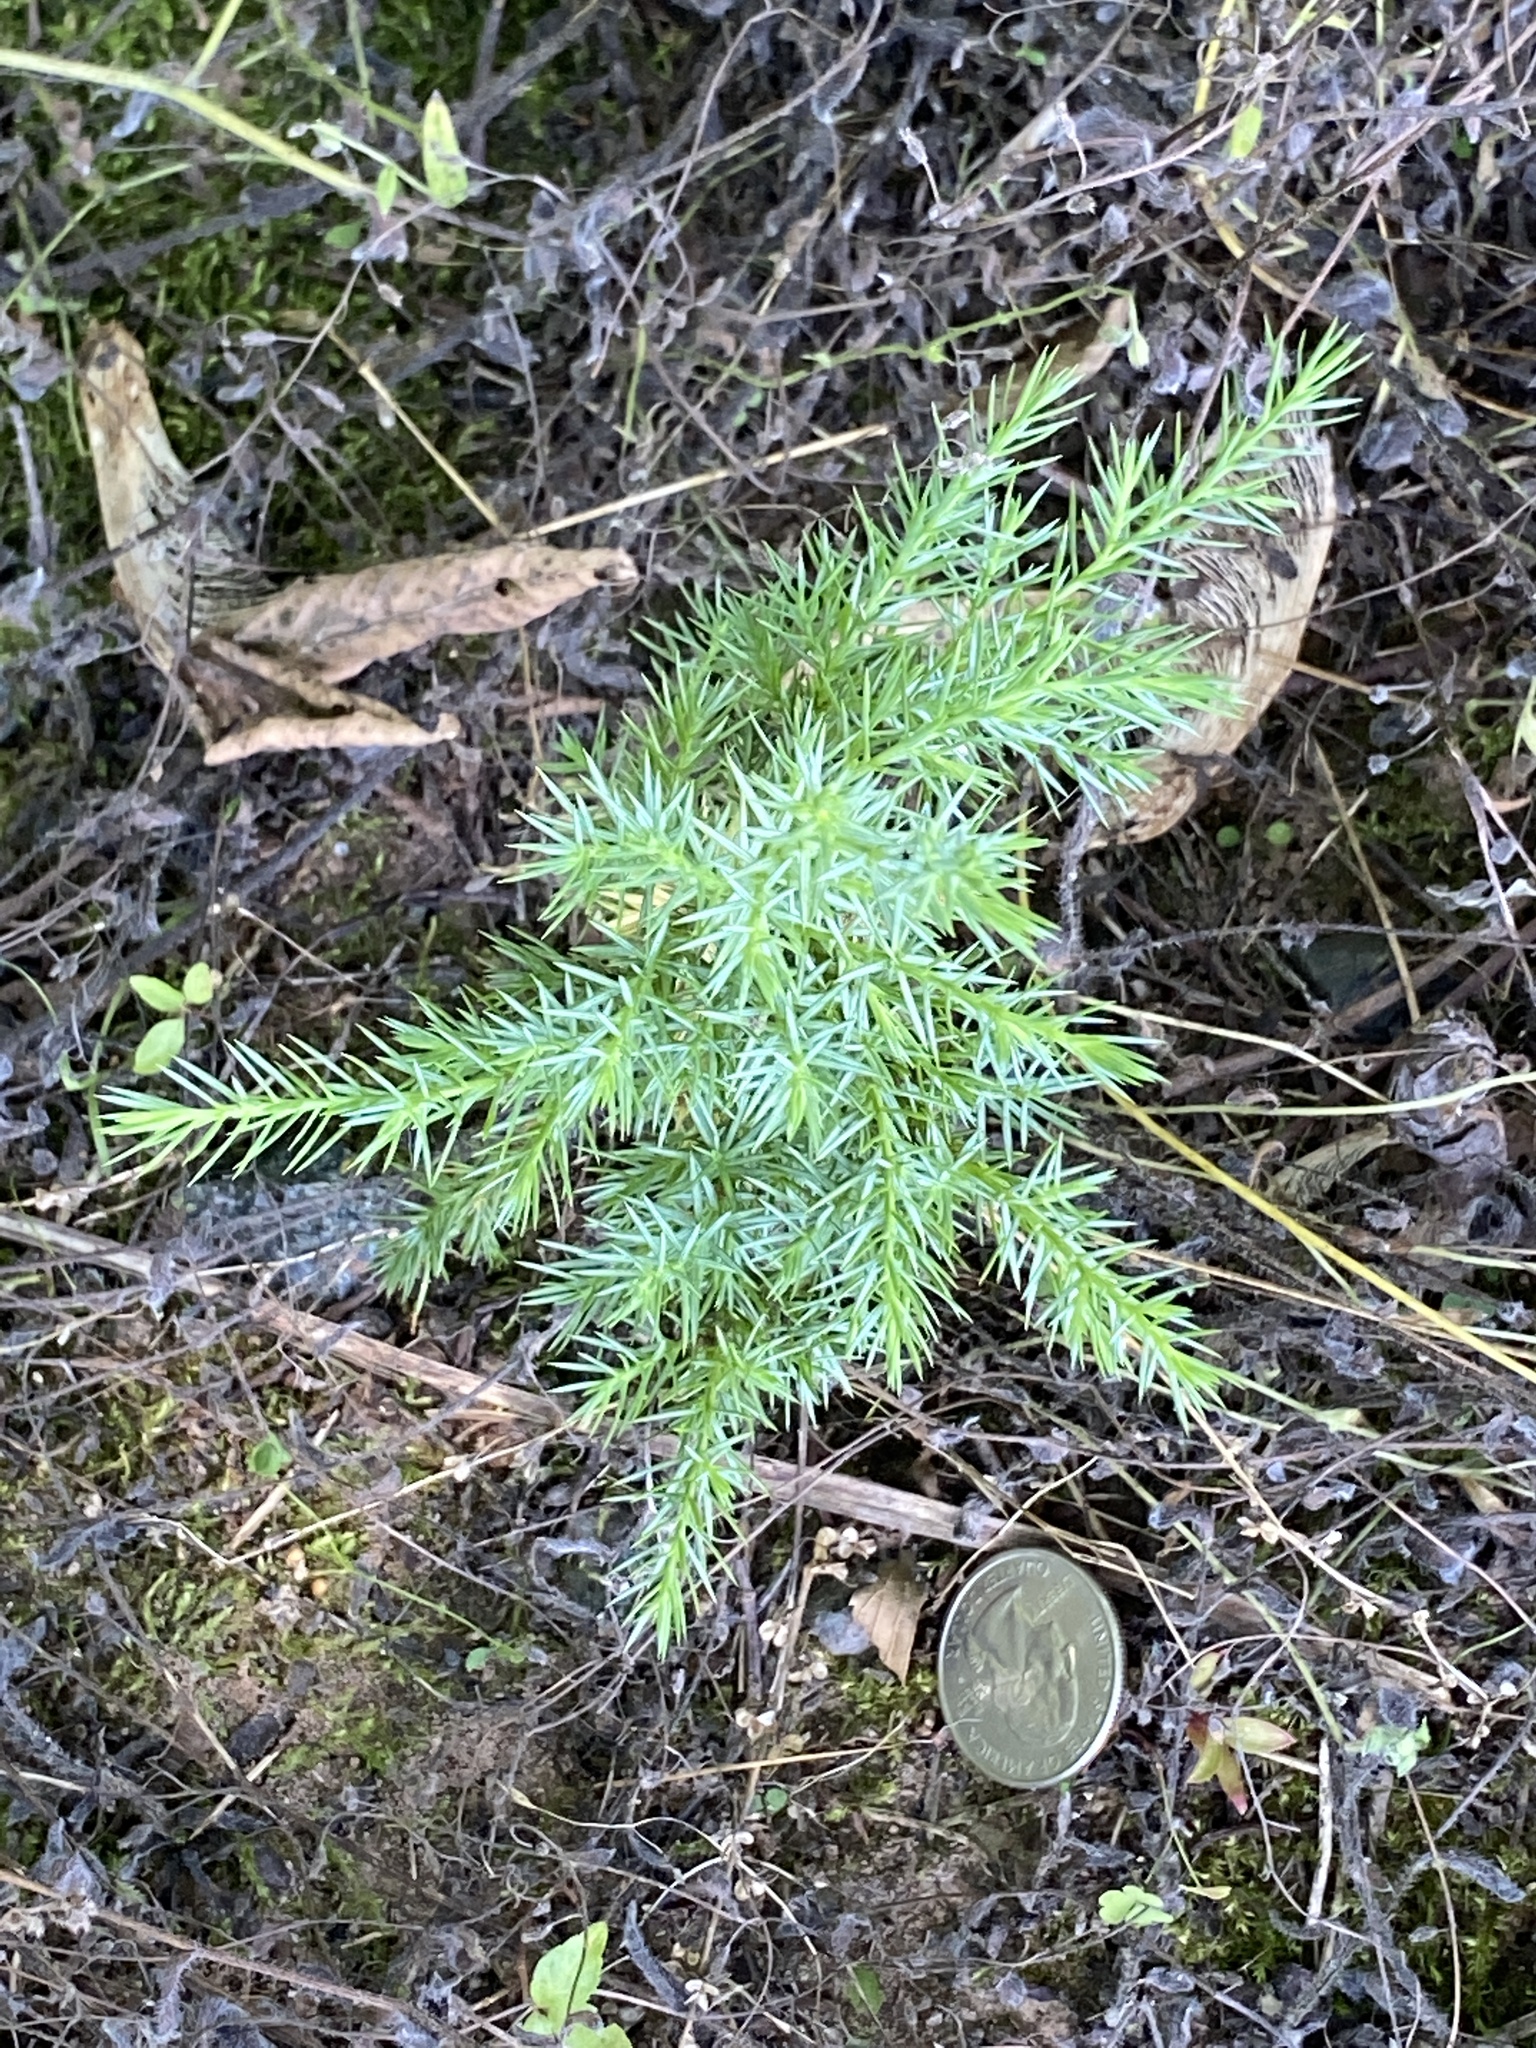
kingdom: Plantae
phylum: Tracheophyta
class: Pinopsida
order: Pinales
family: Cupressaceae
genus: Juniperus
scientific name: Juniperus virginiana
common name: Red juniper
